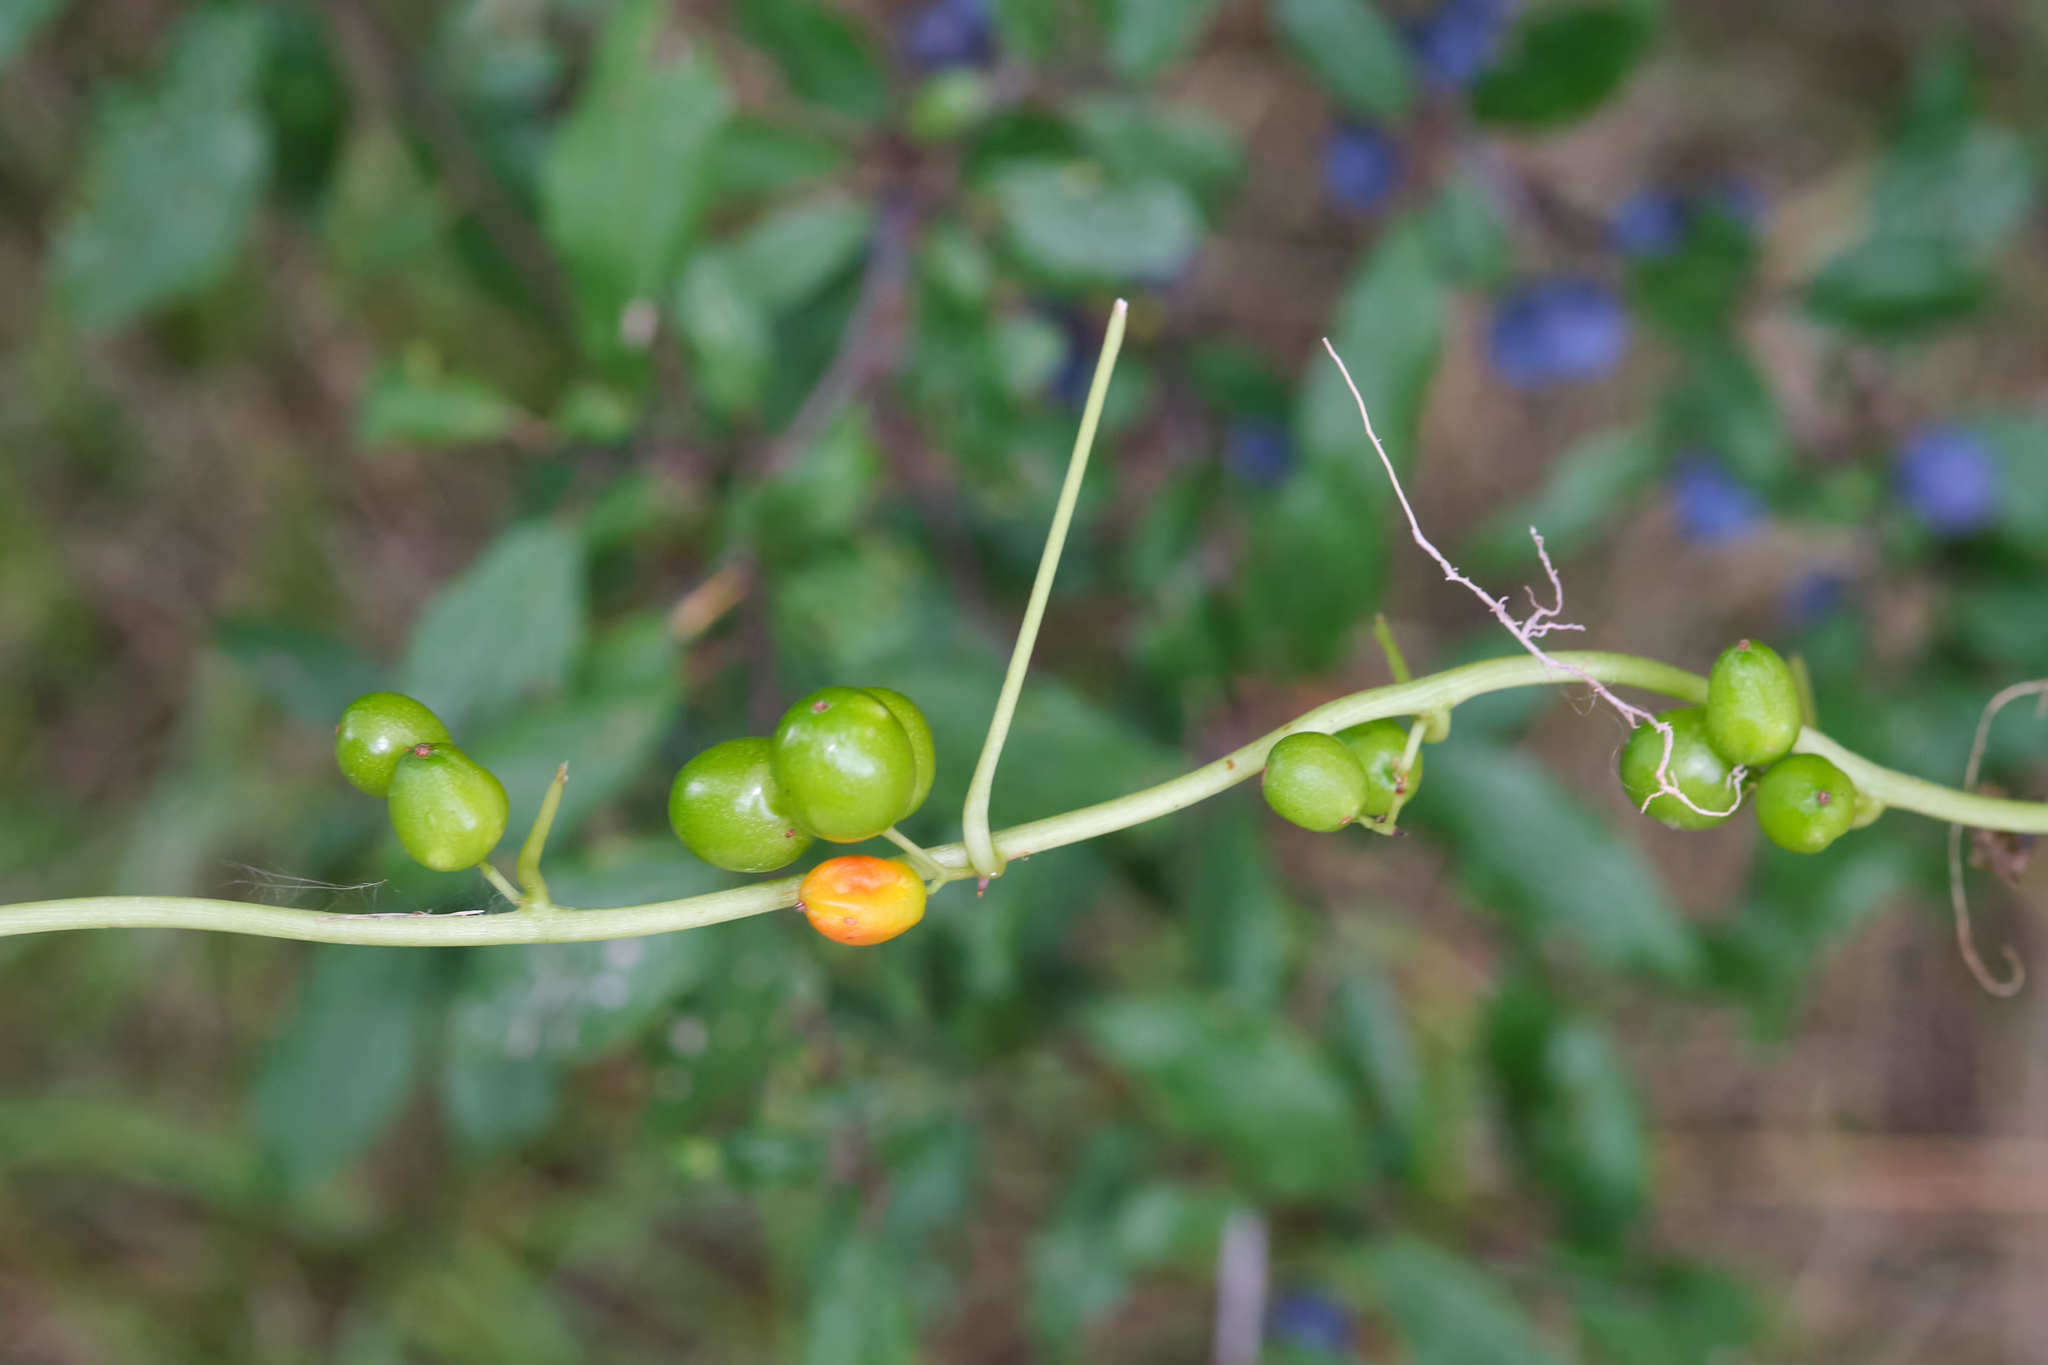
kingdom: Plantae
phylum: Tracheophyta
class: Liliopsida
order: Dioscoreales
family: Dioscoreaceae
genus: Dioscorea
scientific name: Dioscorea communis
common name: Black-bindweed
